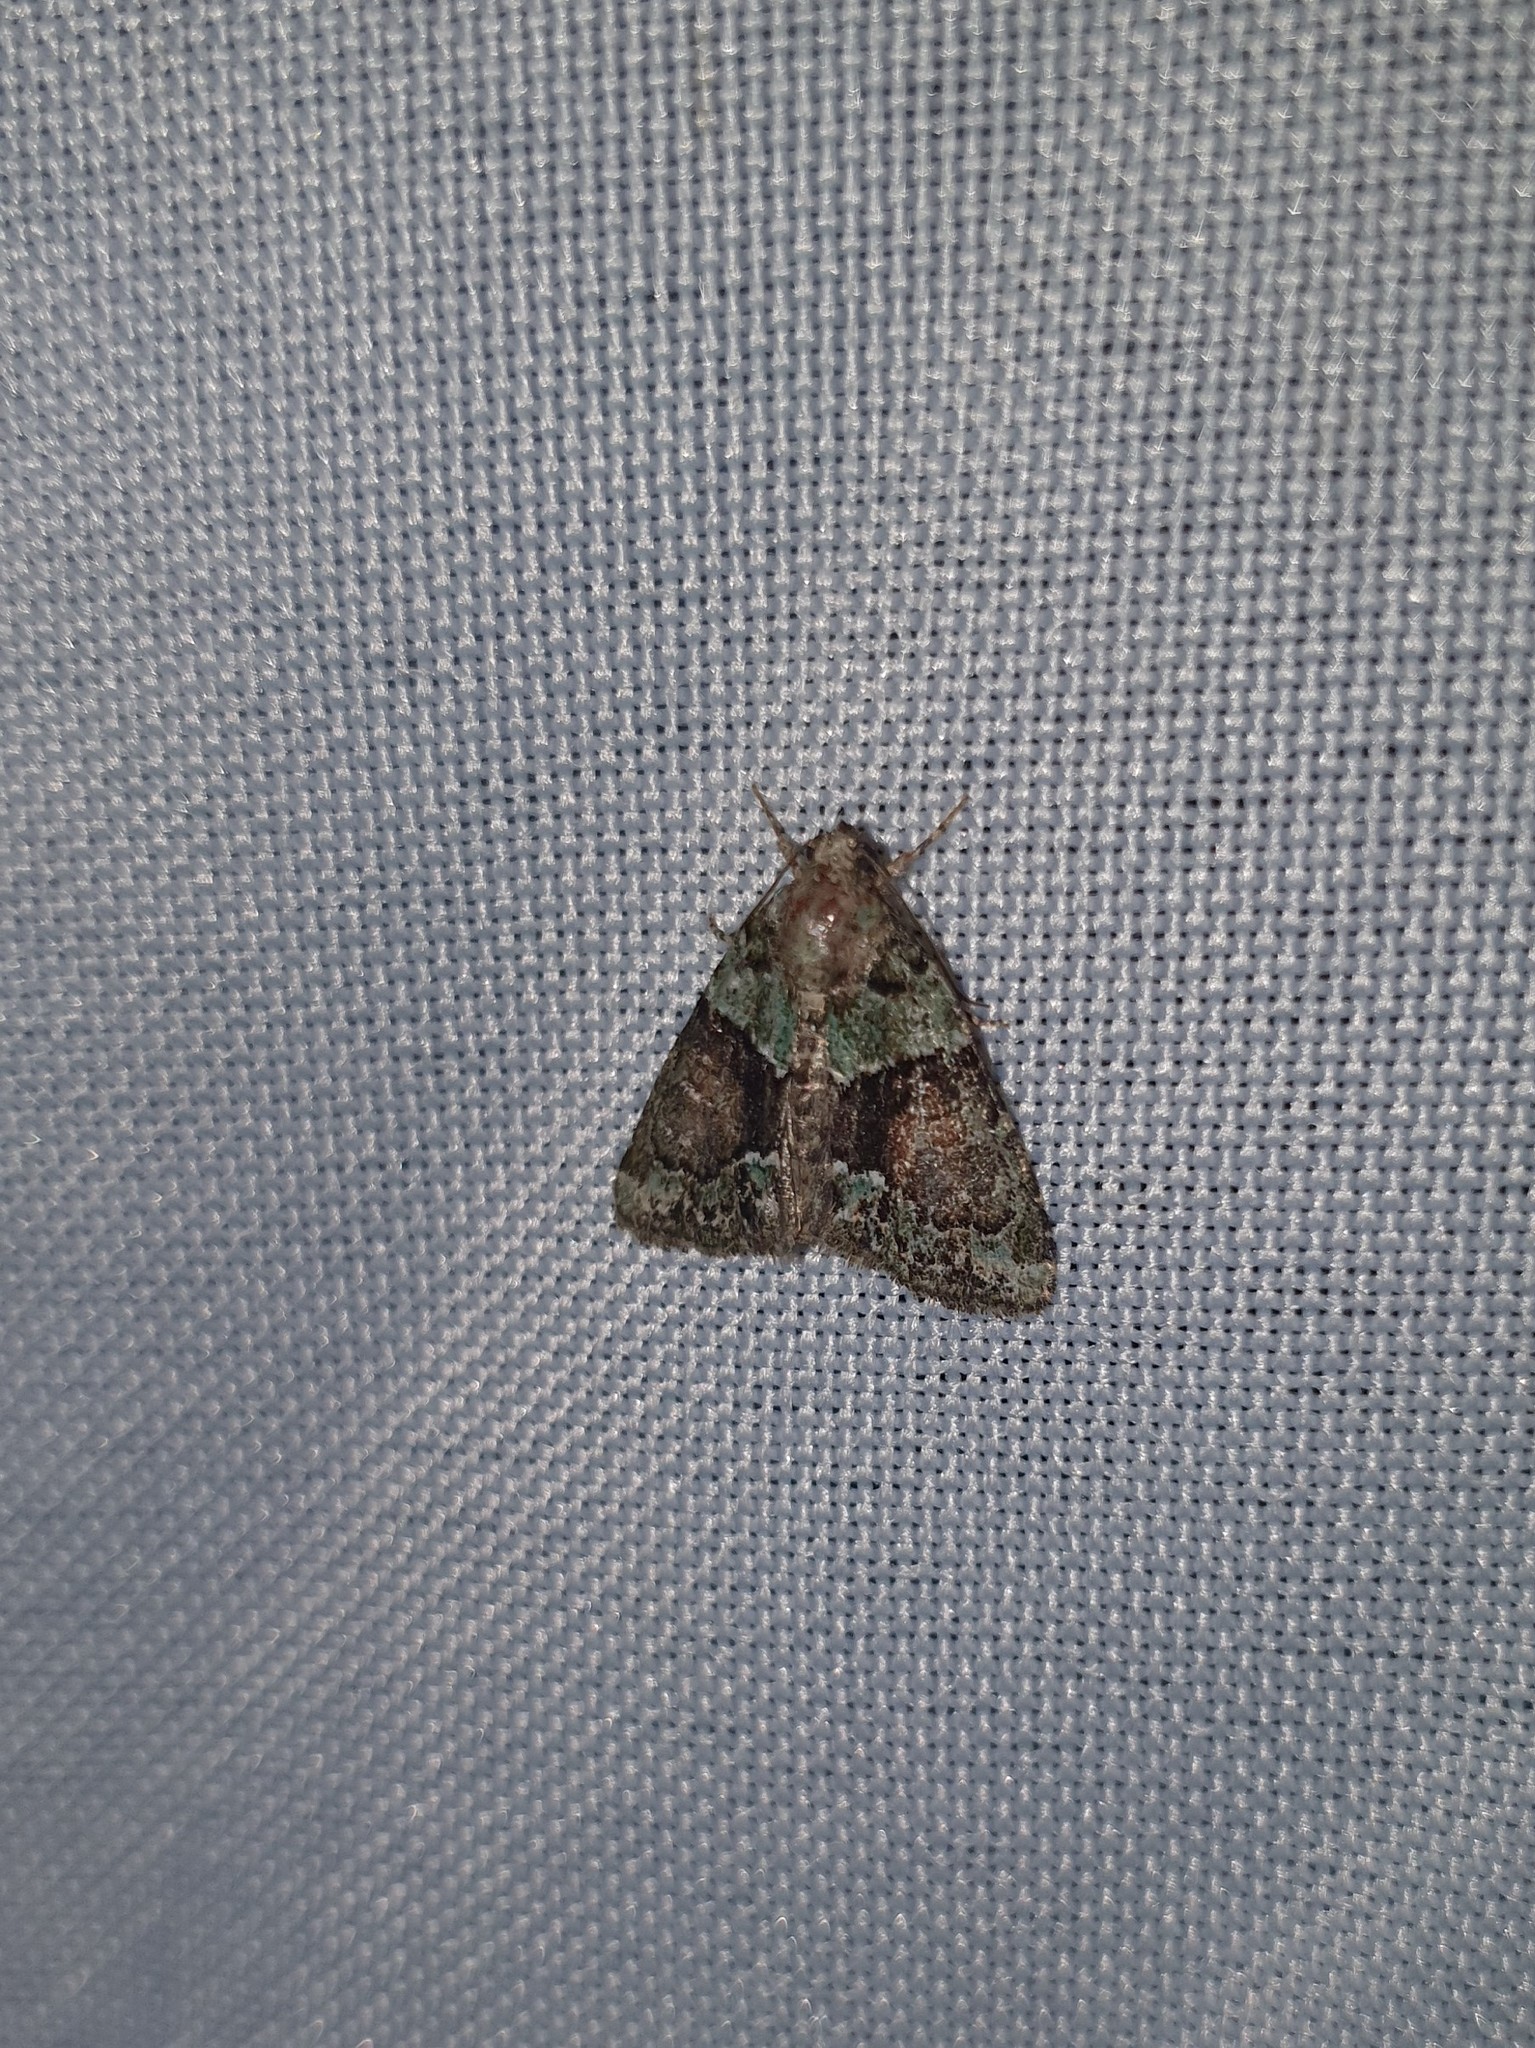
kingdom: Animalia
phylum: Arthropoda
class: Insecta
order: Lepidoptera
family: Noctuidae
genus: Cryphia
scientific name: Cryphia algae
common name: Tree-lichen beauty
